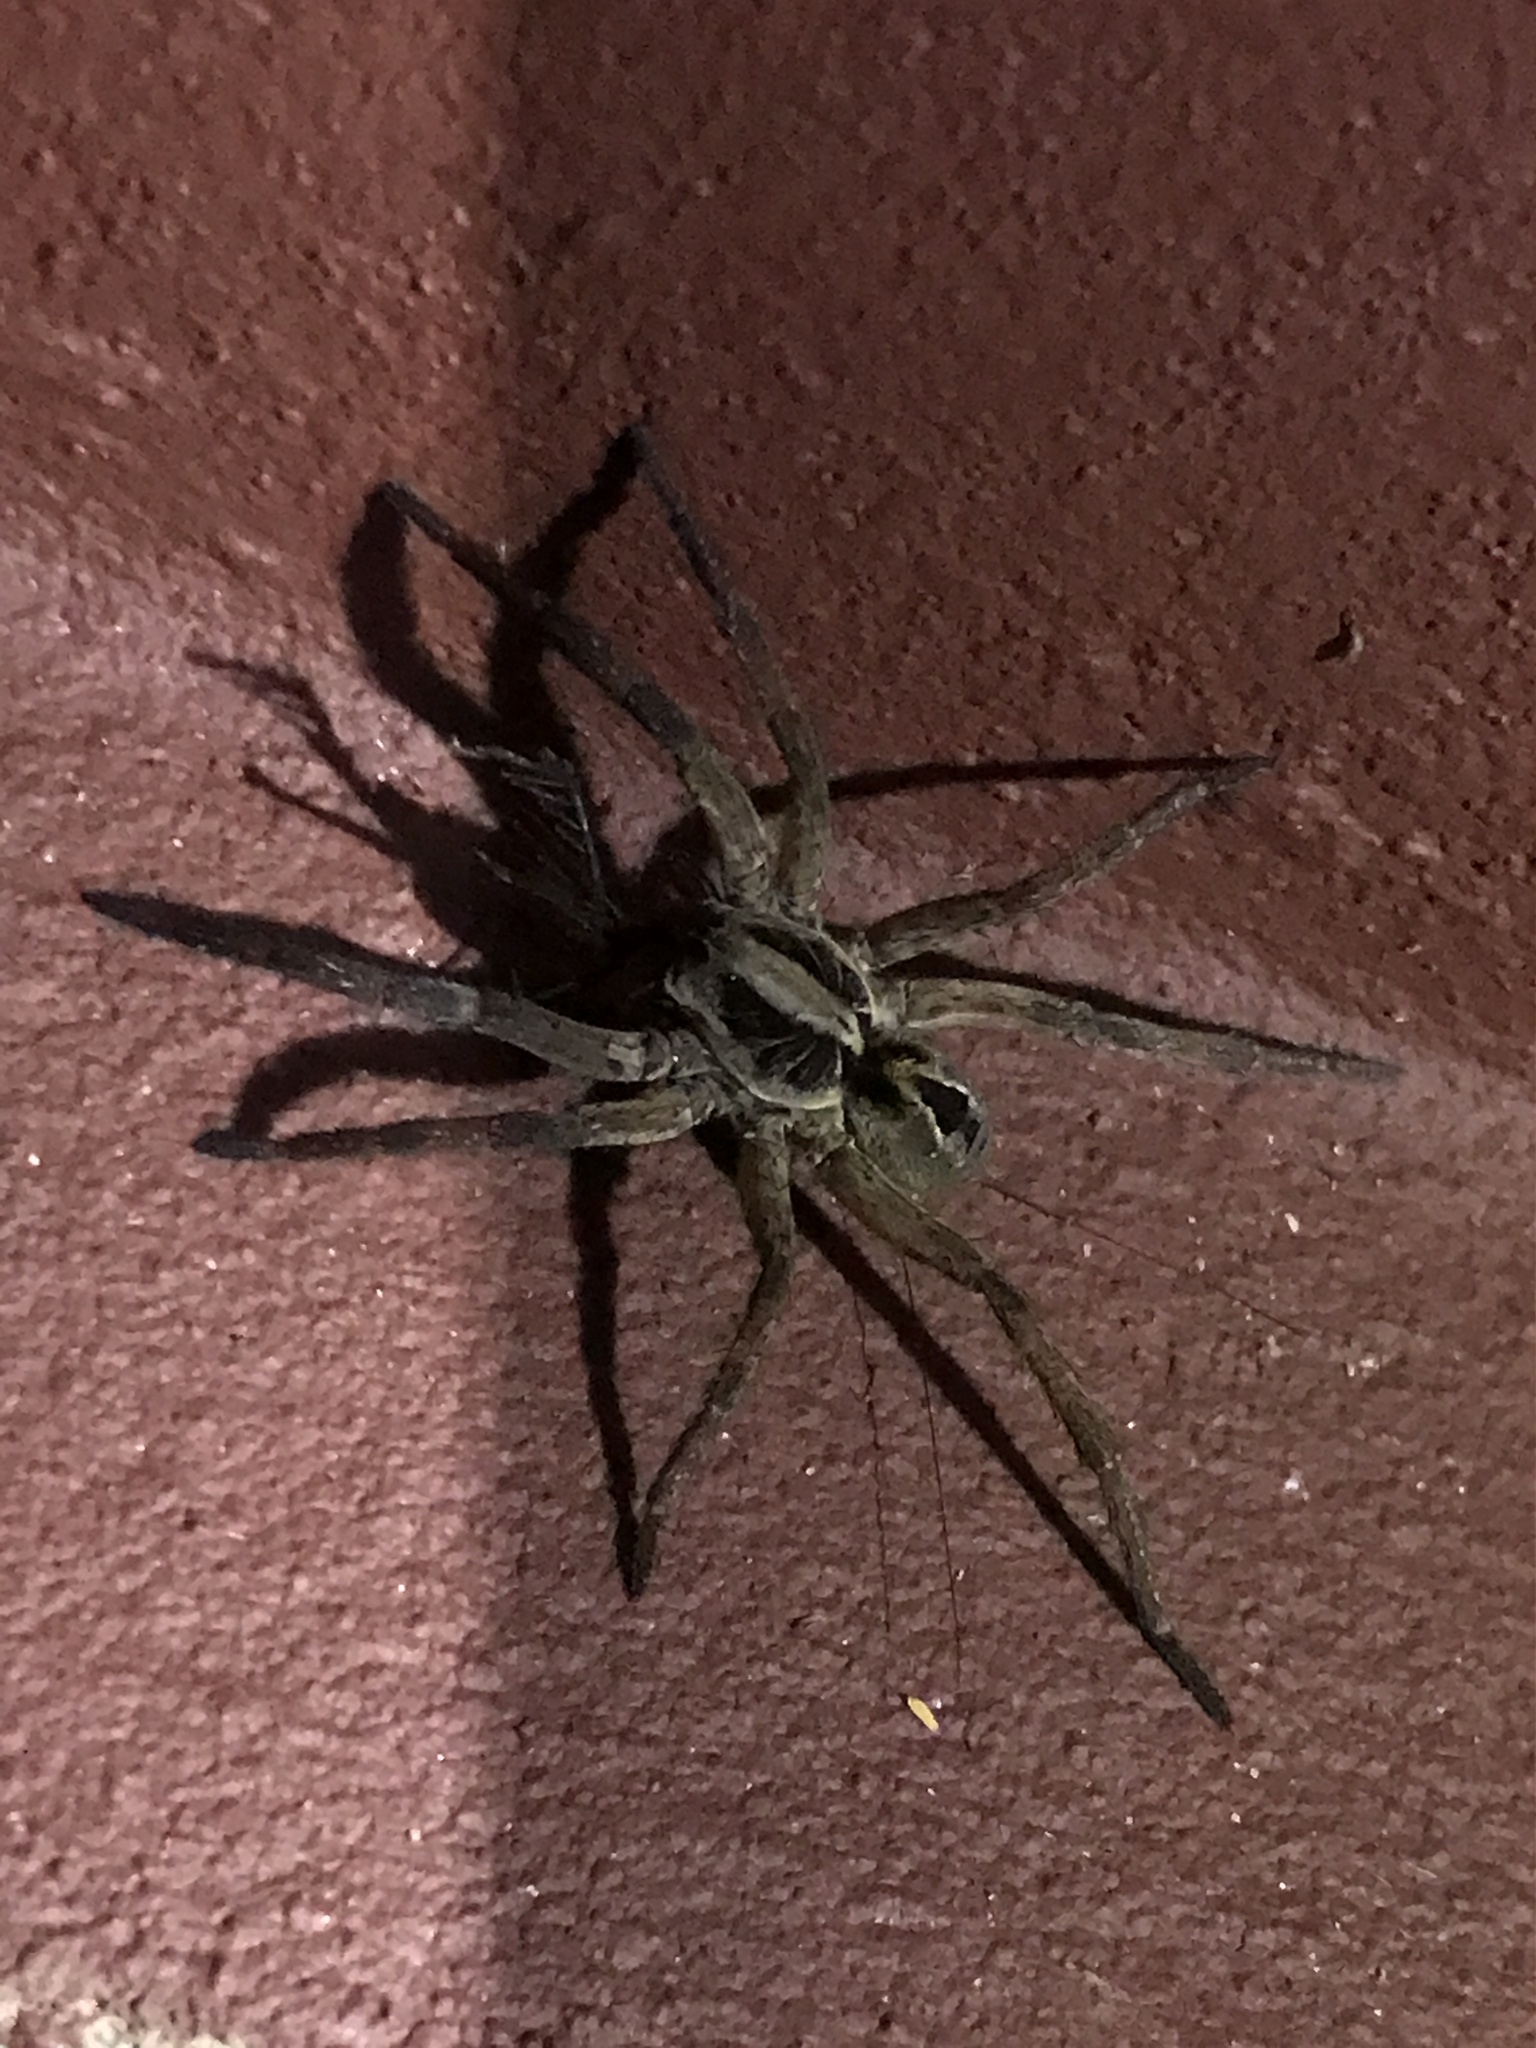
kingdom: Animalia
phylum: Arthropoda
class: Arachnida
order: Araneae
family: Lycosidae
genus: Lycosa
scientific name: Lycosa erythrognatha
